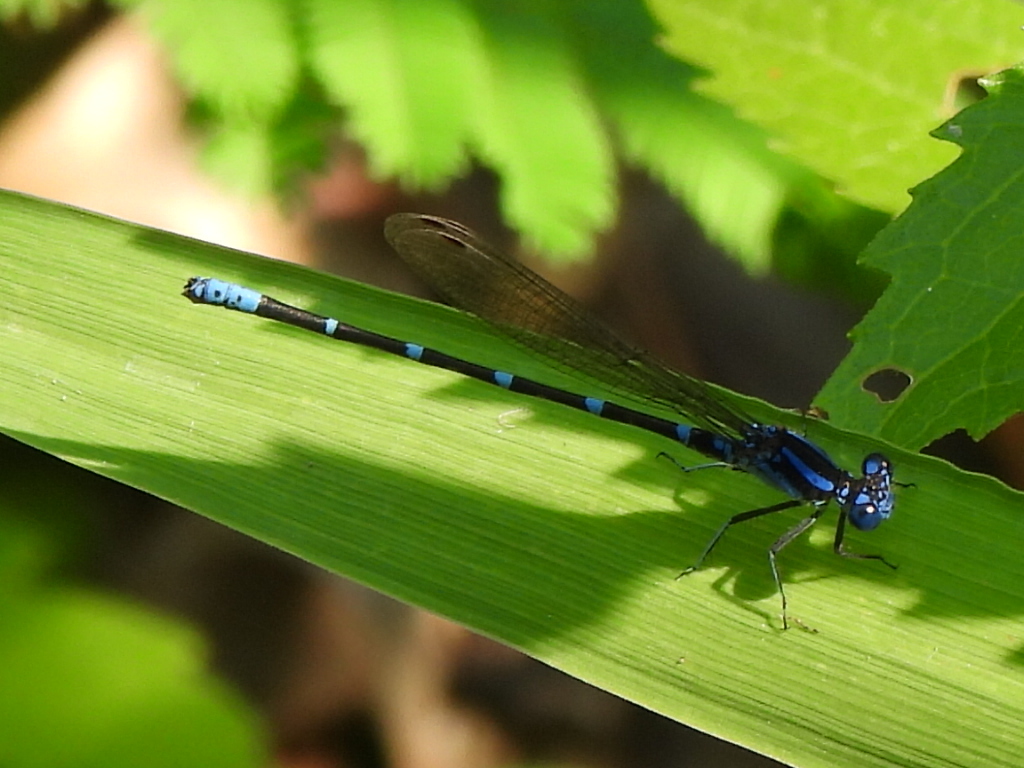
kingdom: Animalia
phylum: Arthropoda
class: Insecta
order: Odonata
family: Coenagrionidae
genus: Argia
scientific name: Argia sedula
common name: Blue-ringed dancer
